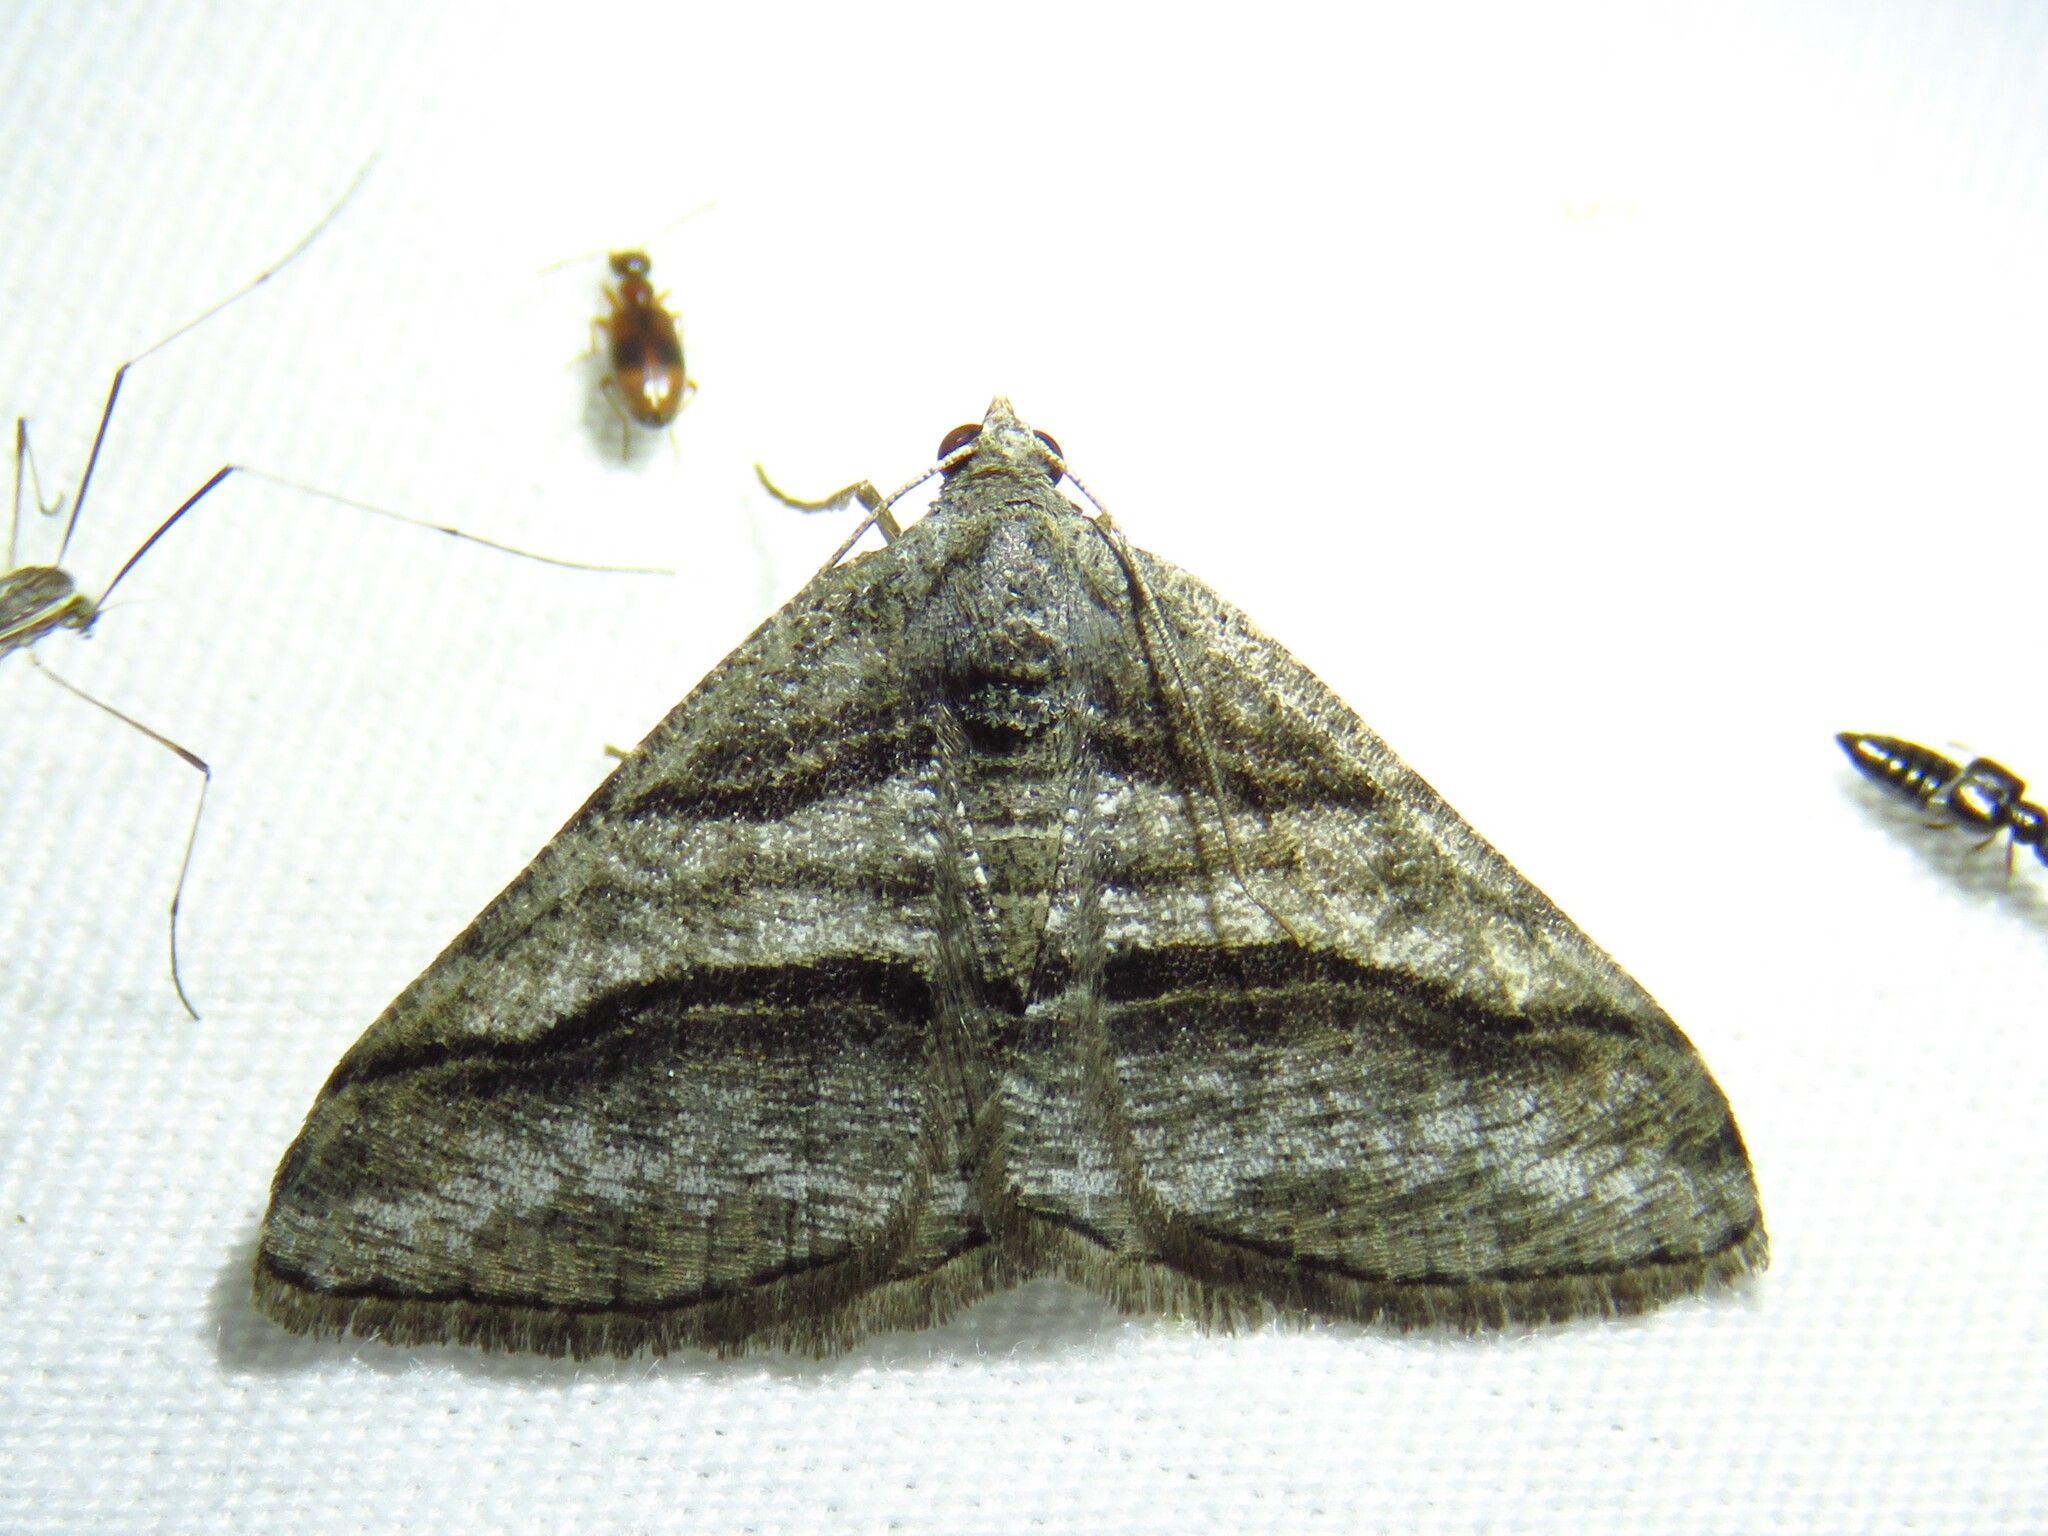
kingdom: Animalia
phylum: Arthropoda
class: Insecta
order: Lepidoptera
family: Geometridae
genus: Digrammia
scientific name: Digrammia atrofasciata
